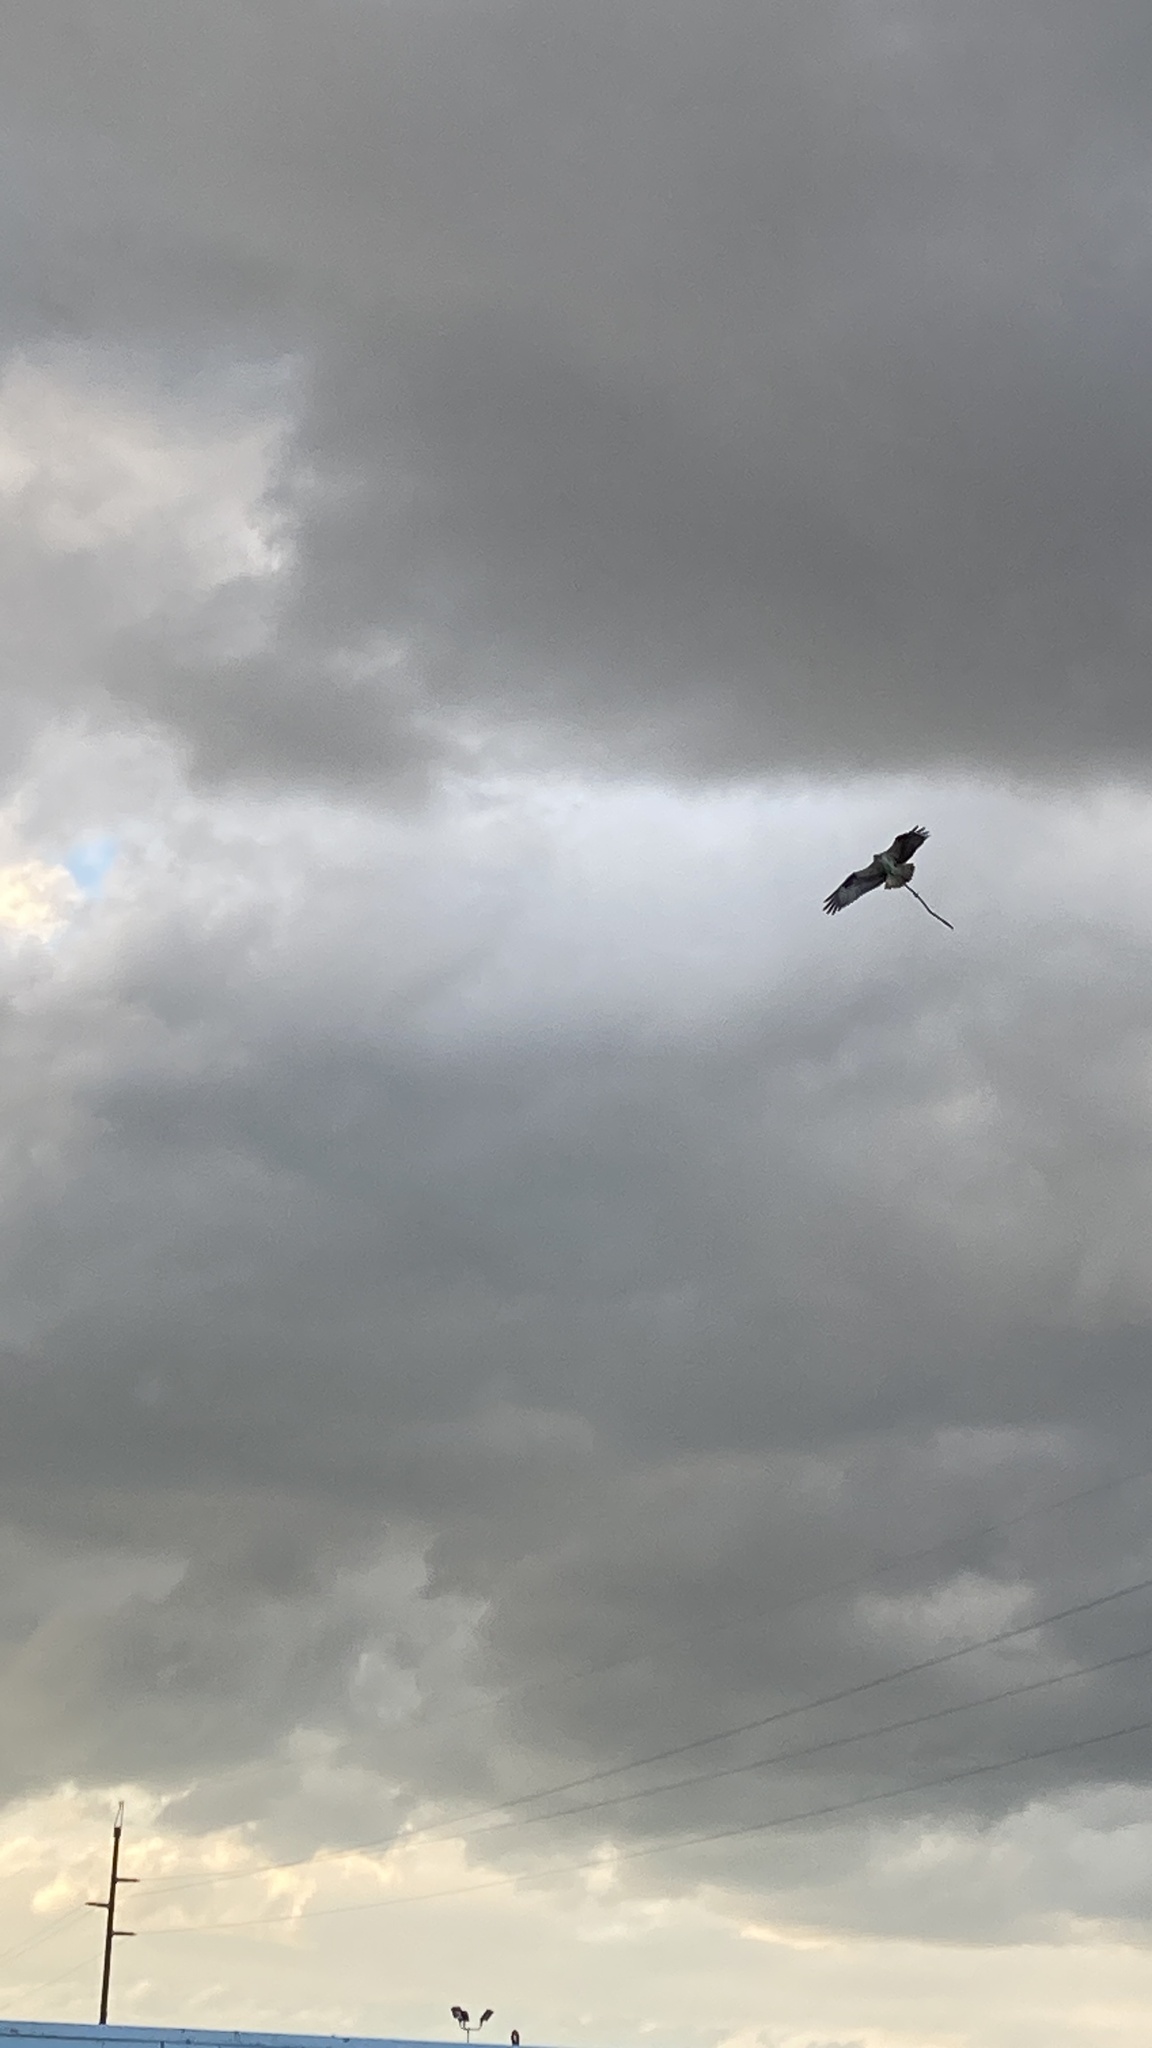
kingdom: Animalia
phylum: Chordata
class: Aves
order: Accipitriformes
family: Pandionidae
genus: Pandion
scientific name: Pandion haliaetus
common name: Osprey
